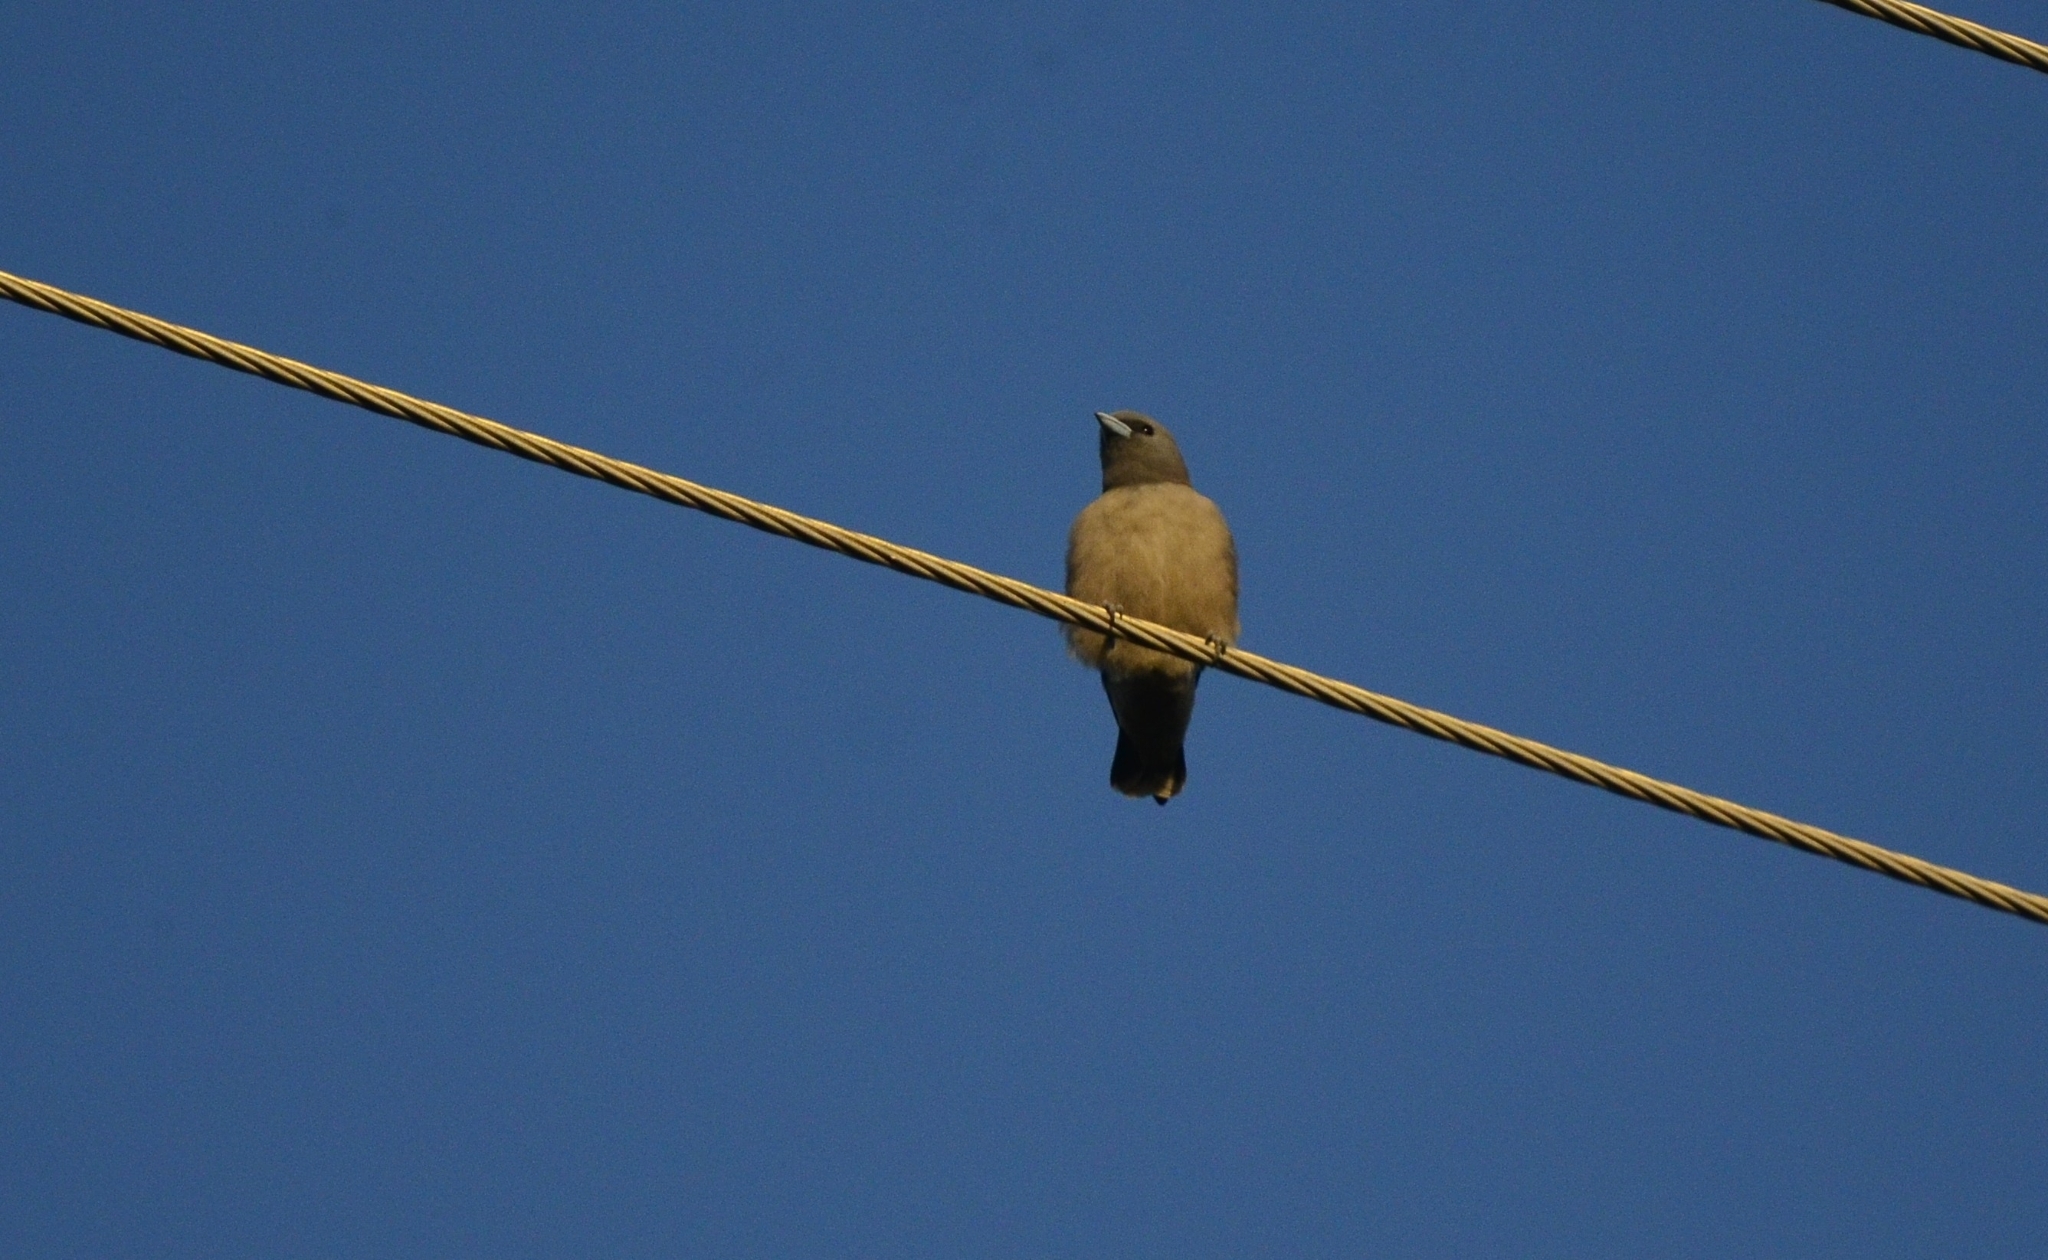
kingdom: Animalia
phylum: Chordata
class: Aves
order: Passeriformes
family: Artamidae
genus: Artamus
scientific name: Artamus fuscus
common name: Ashy woodswallow
